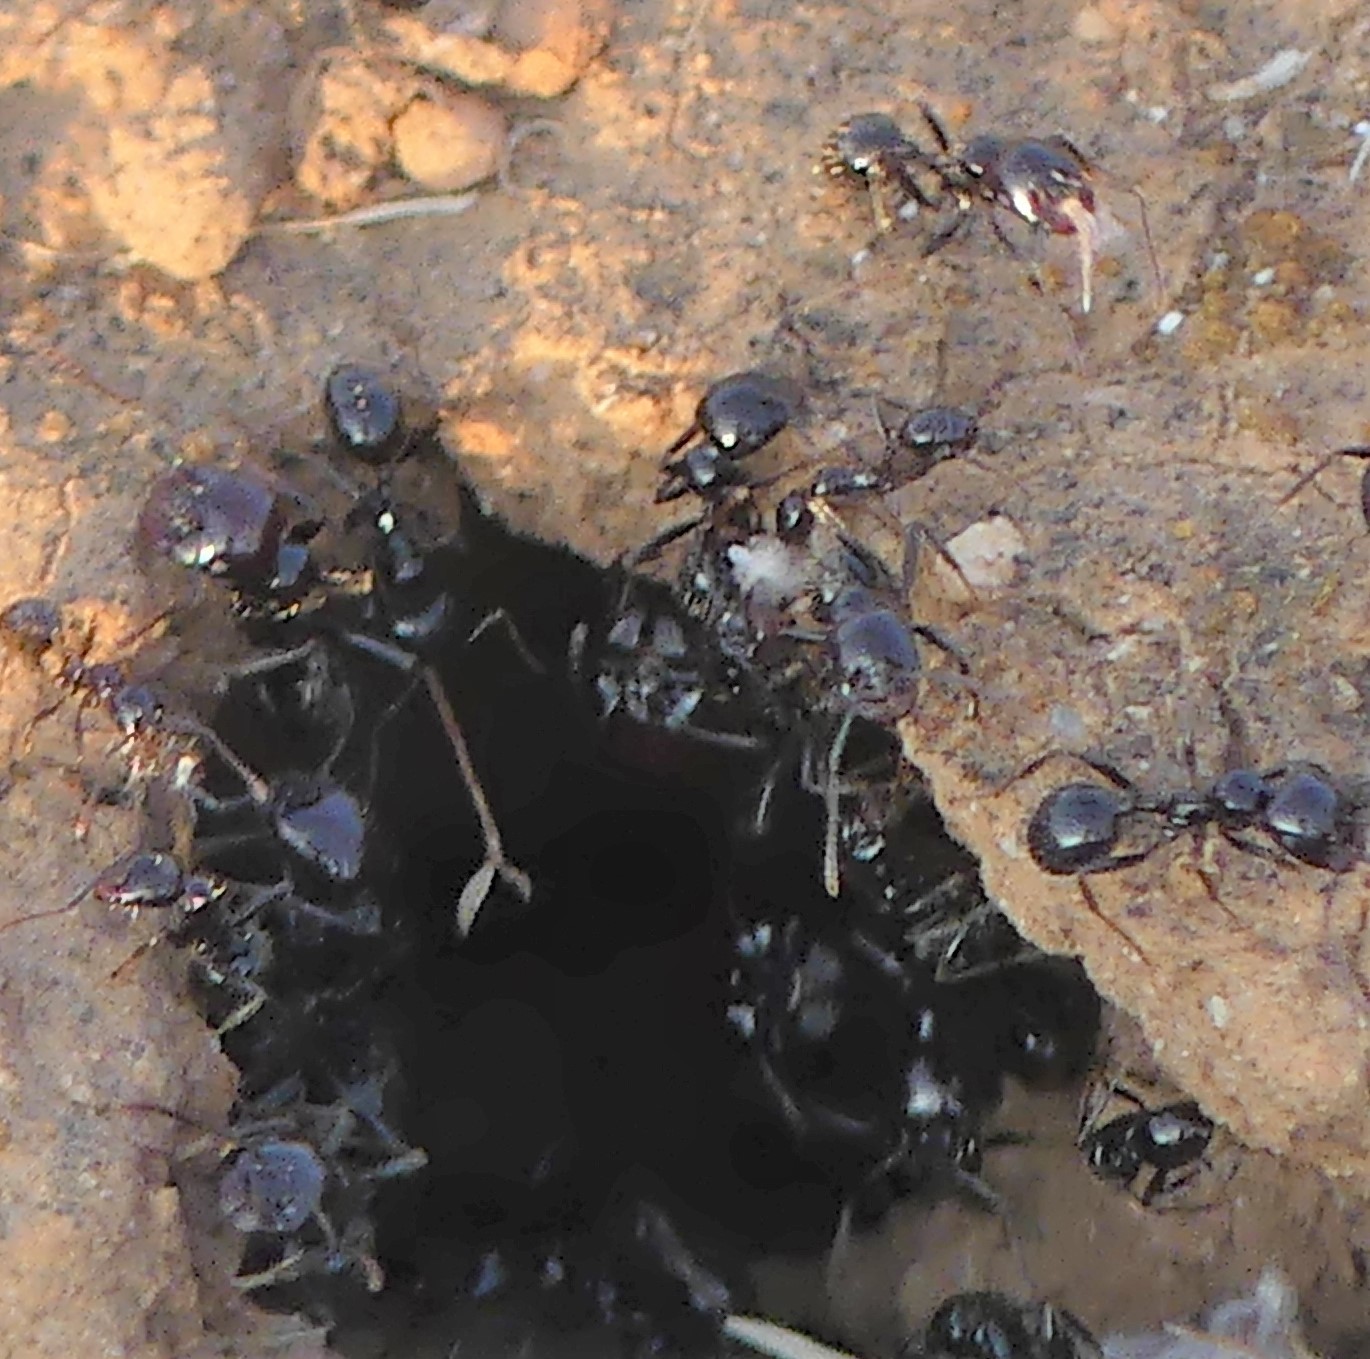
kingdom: Animalia
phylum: Arthropoda
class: Insecta
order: Hymenoptera
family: Formicidae
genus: Messor
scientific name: Messor barbarus
